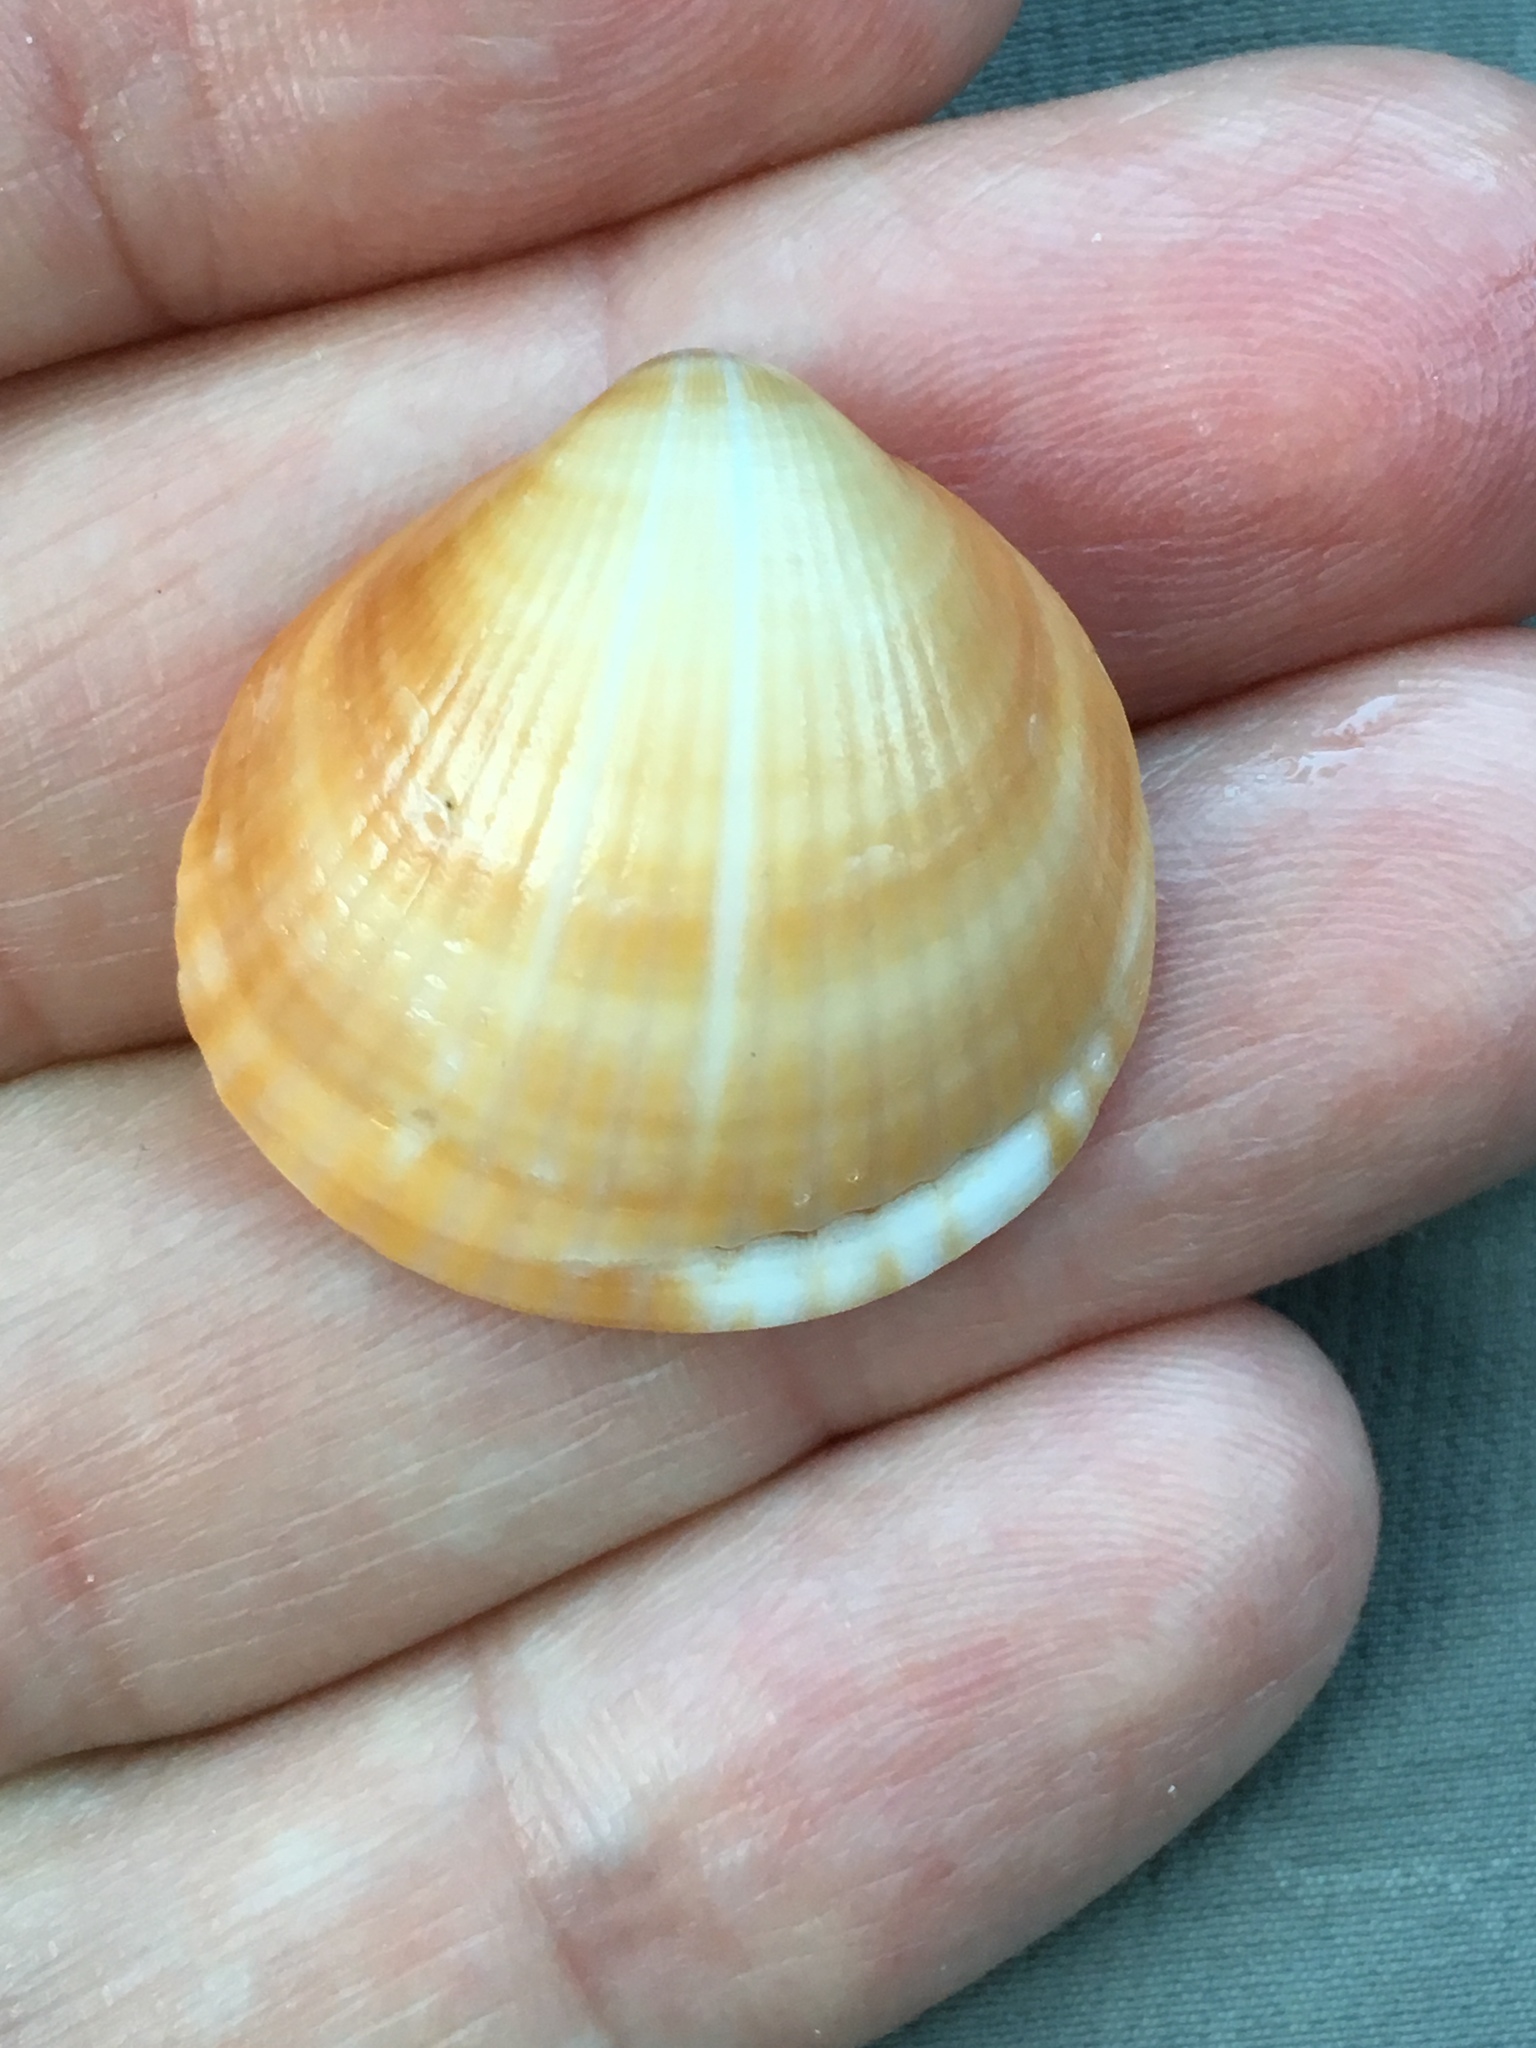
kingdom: Animalia
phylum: Mollusca
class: Bivalvia
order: Arcida
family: Glycymerididae
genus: Glycymeris
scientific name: Glycymeris spectralis
